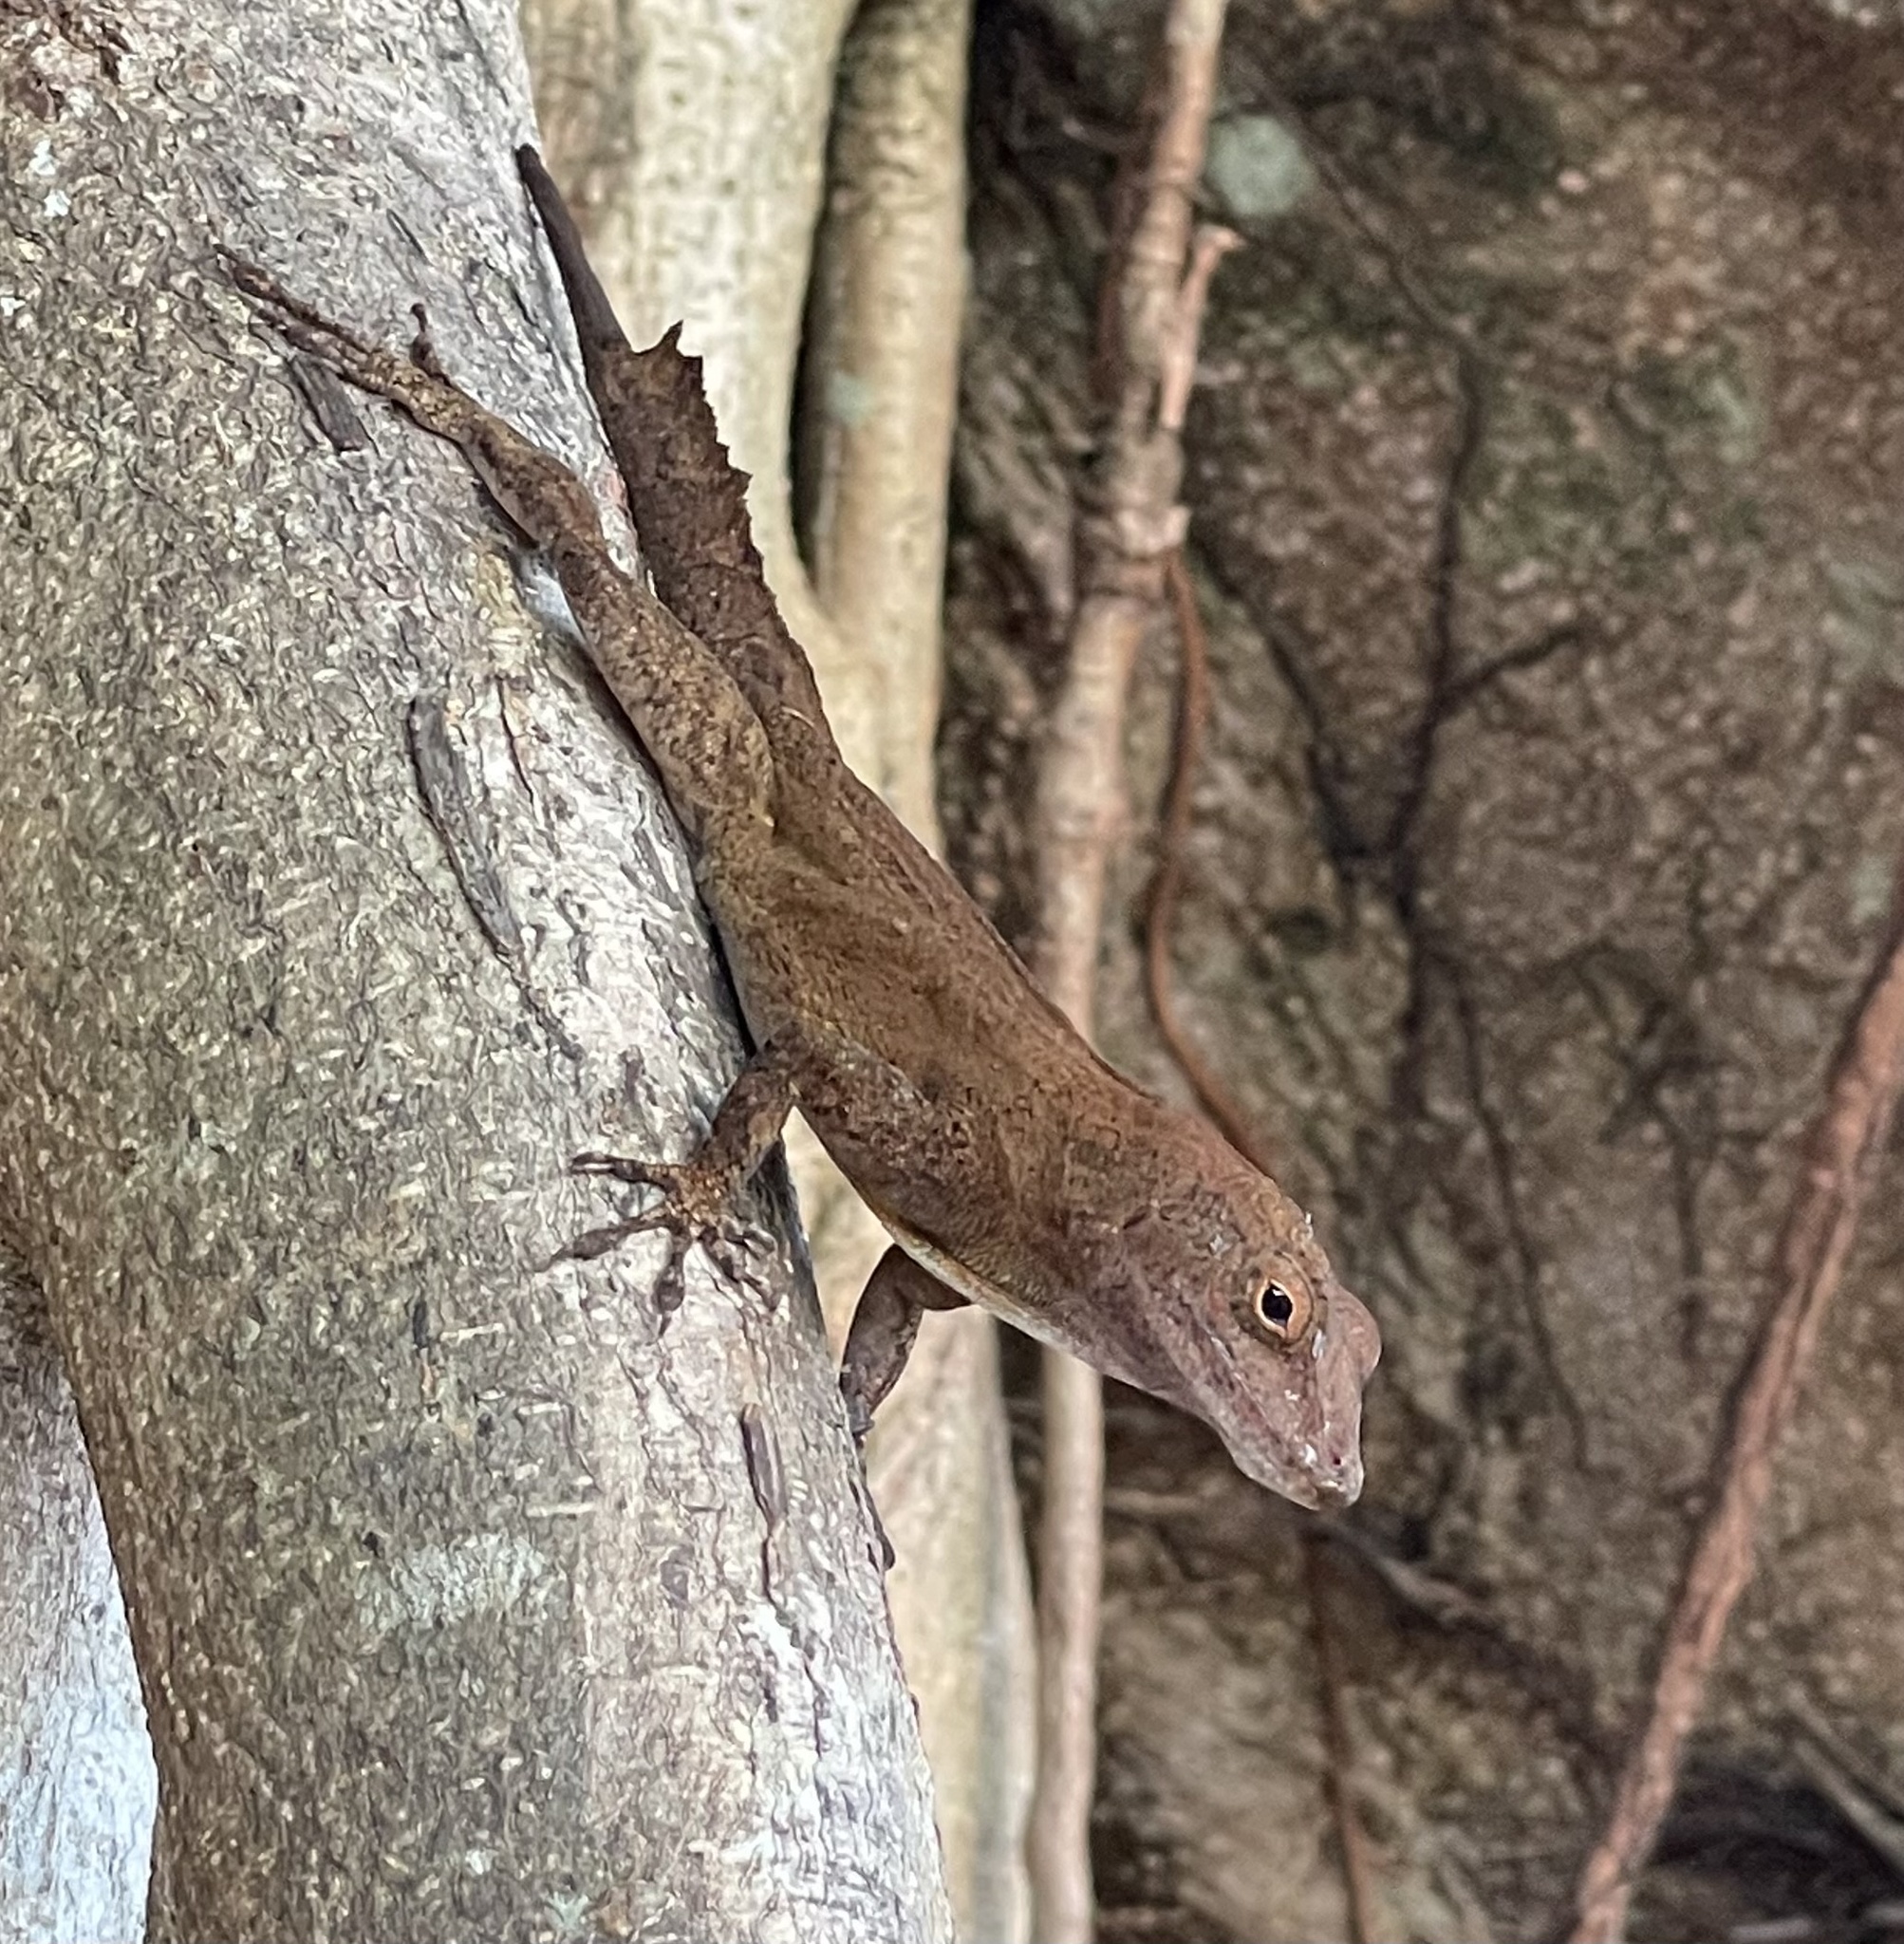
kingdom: Animalia
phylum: Chordata
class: Squamata
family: Dactyloidae
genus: Anolis
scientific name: Anolis cristatellus
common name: Crested anole
